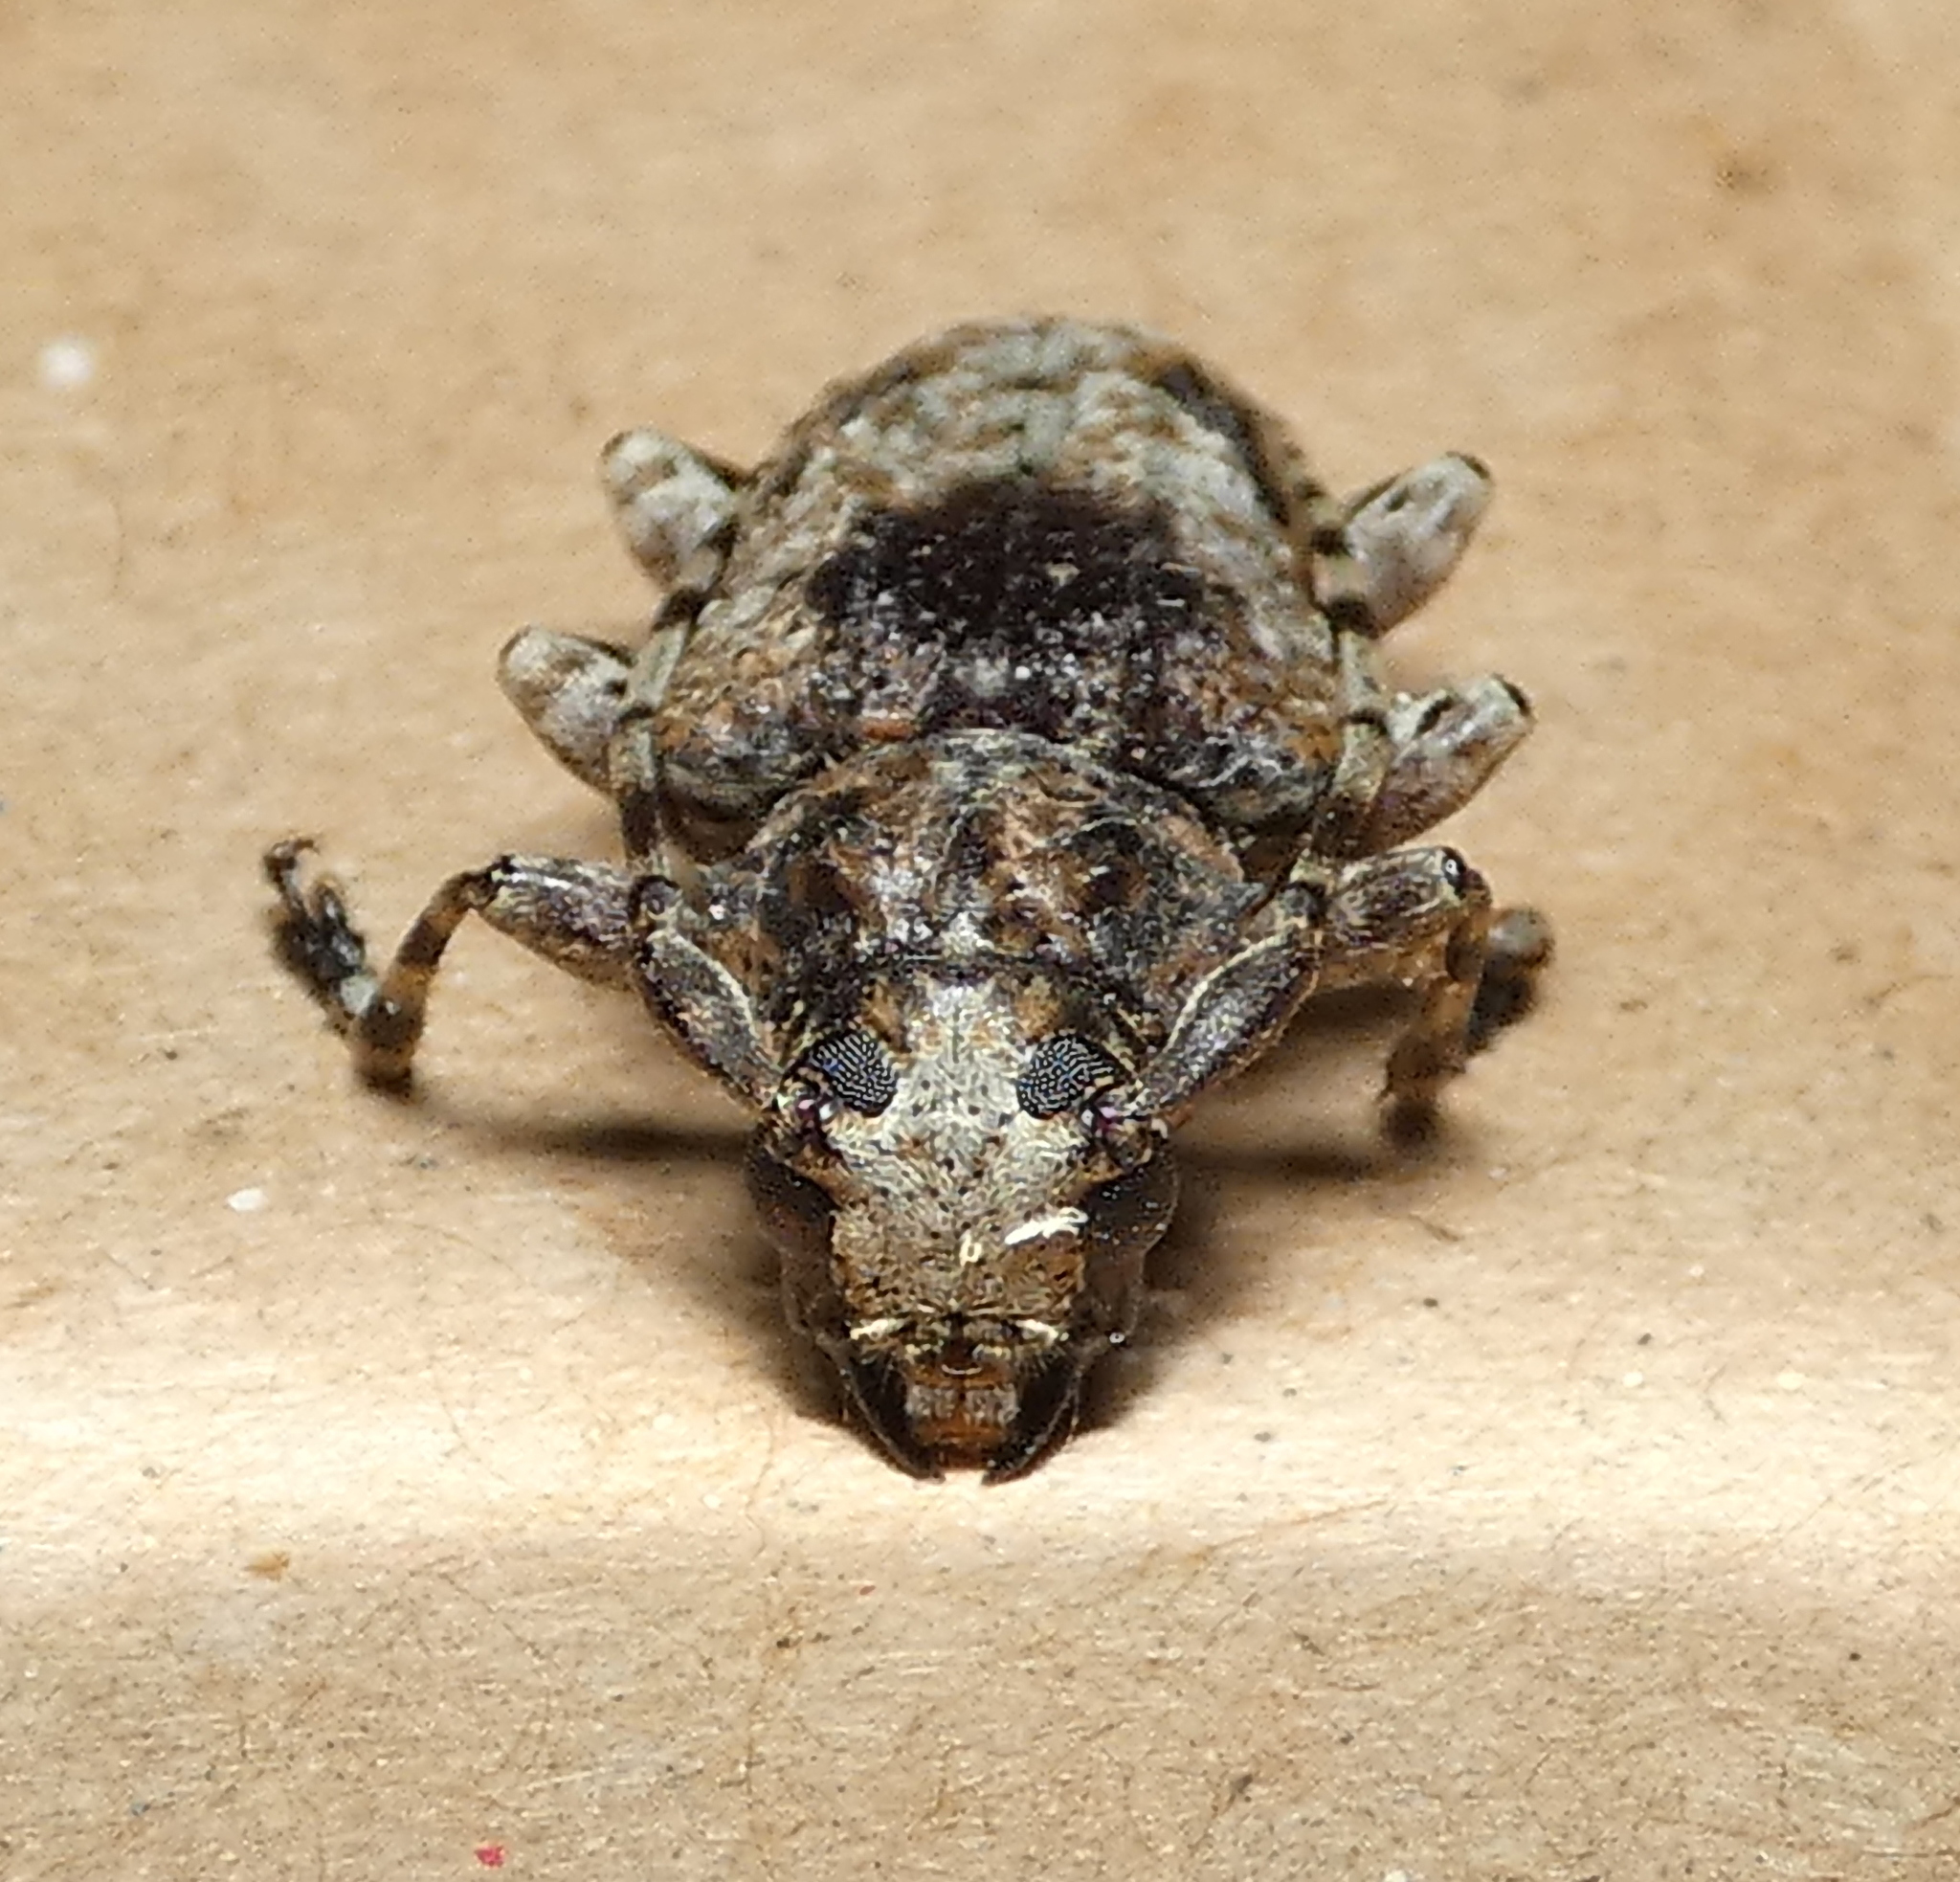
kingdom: Animalia
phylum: Arthropoda
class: Insecta
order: Coleoptera
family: Cerambycidae
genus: Psapharochrus
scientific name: Psapharochrus jaspideus
